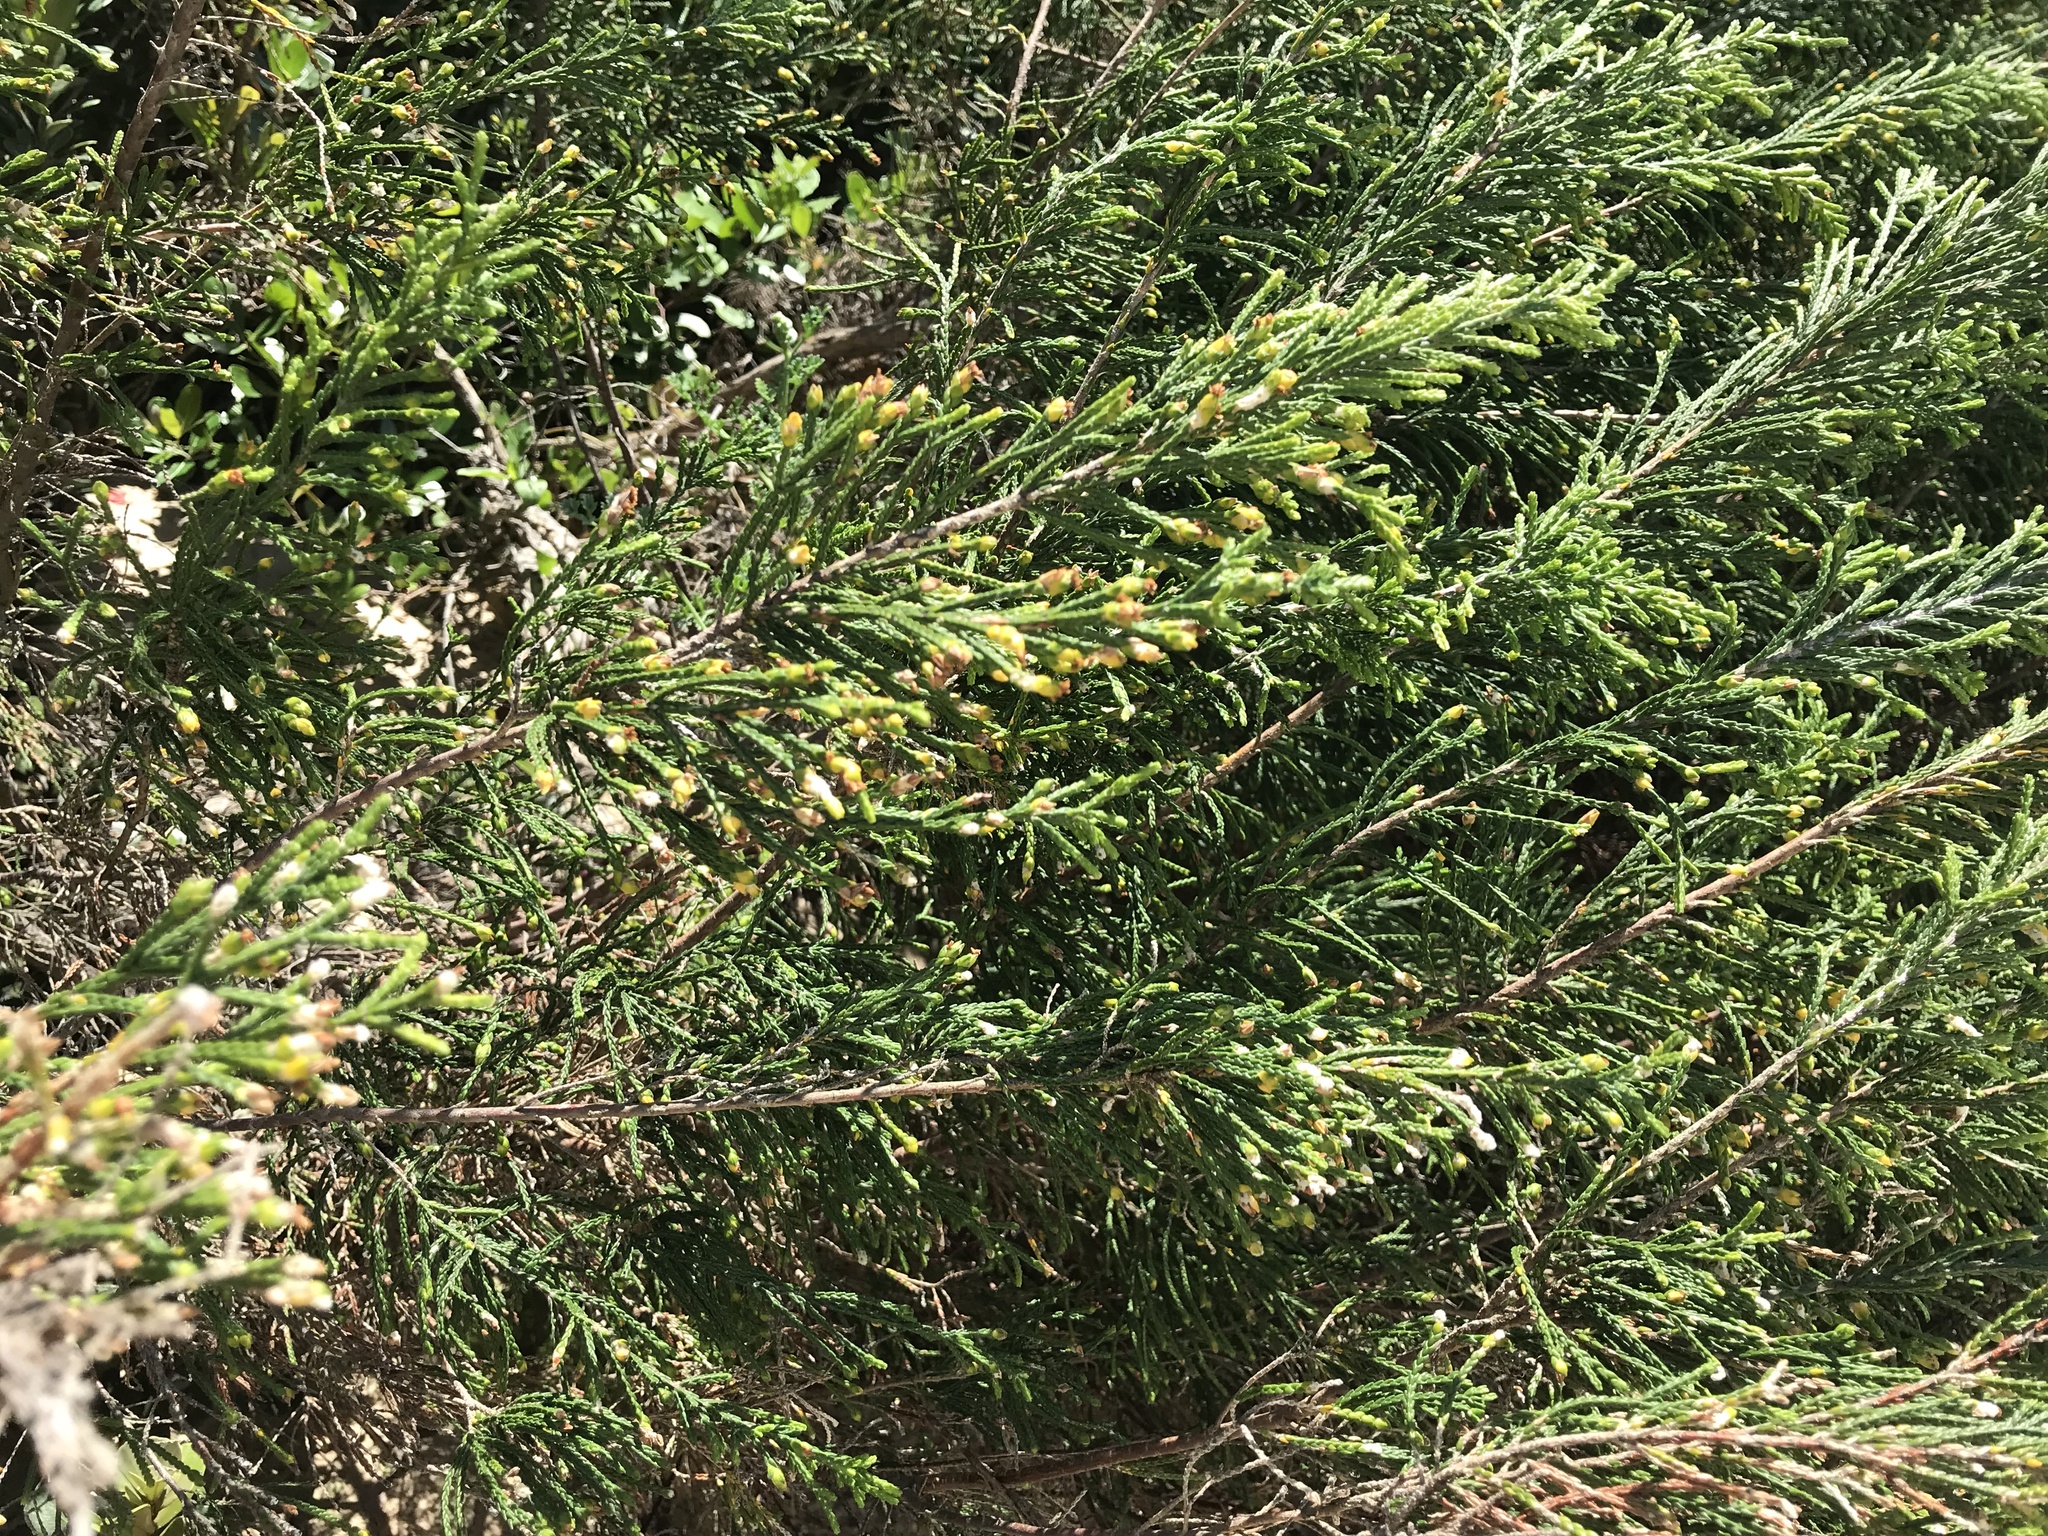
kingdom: Plantae
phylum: Tracheophyta
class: Magnoliopsida
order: Malvales
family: Thymelaeaceae
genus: Passerina
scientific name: Passerina rigida
